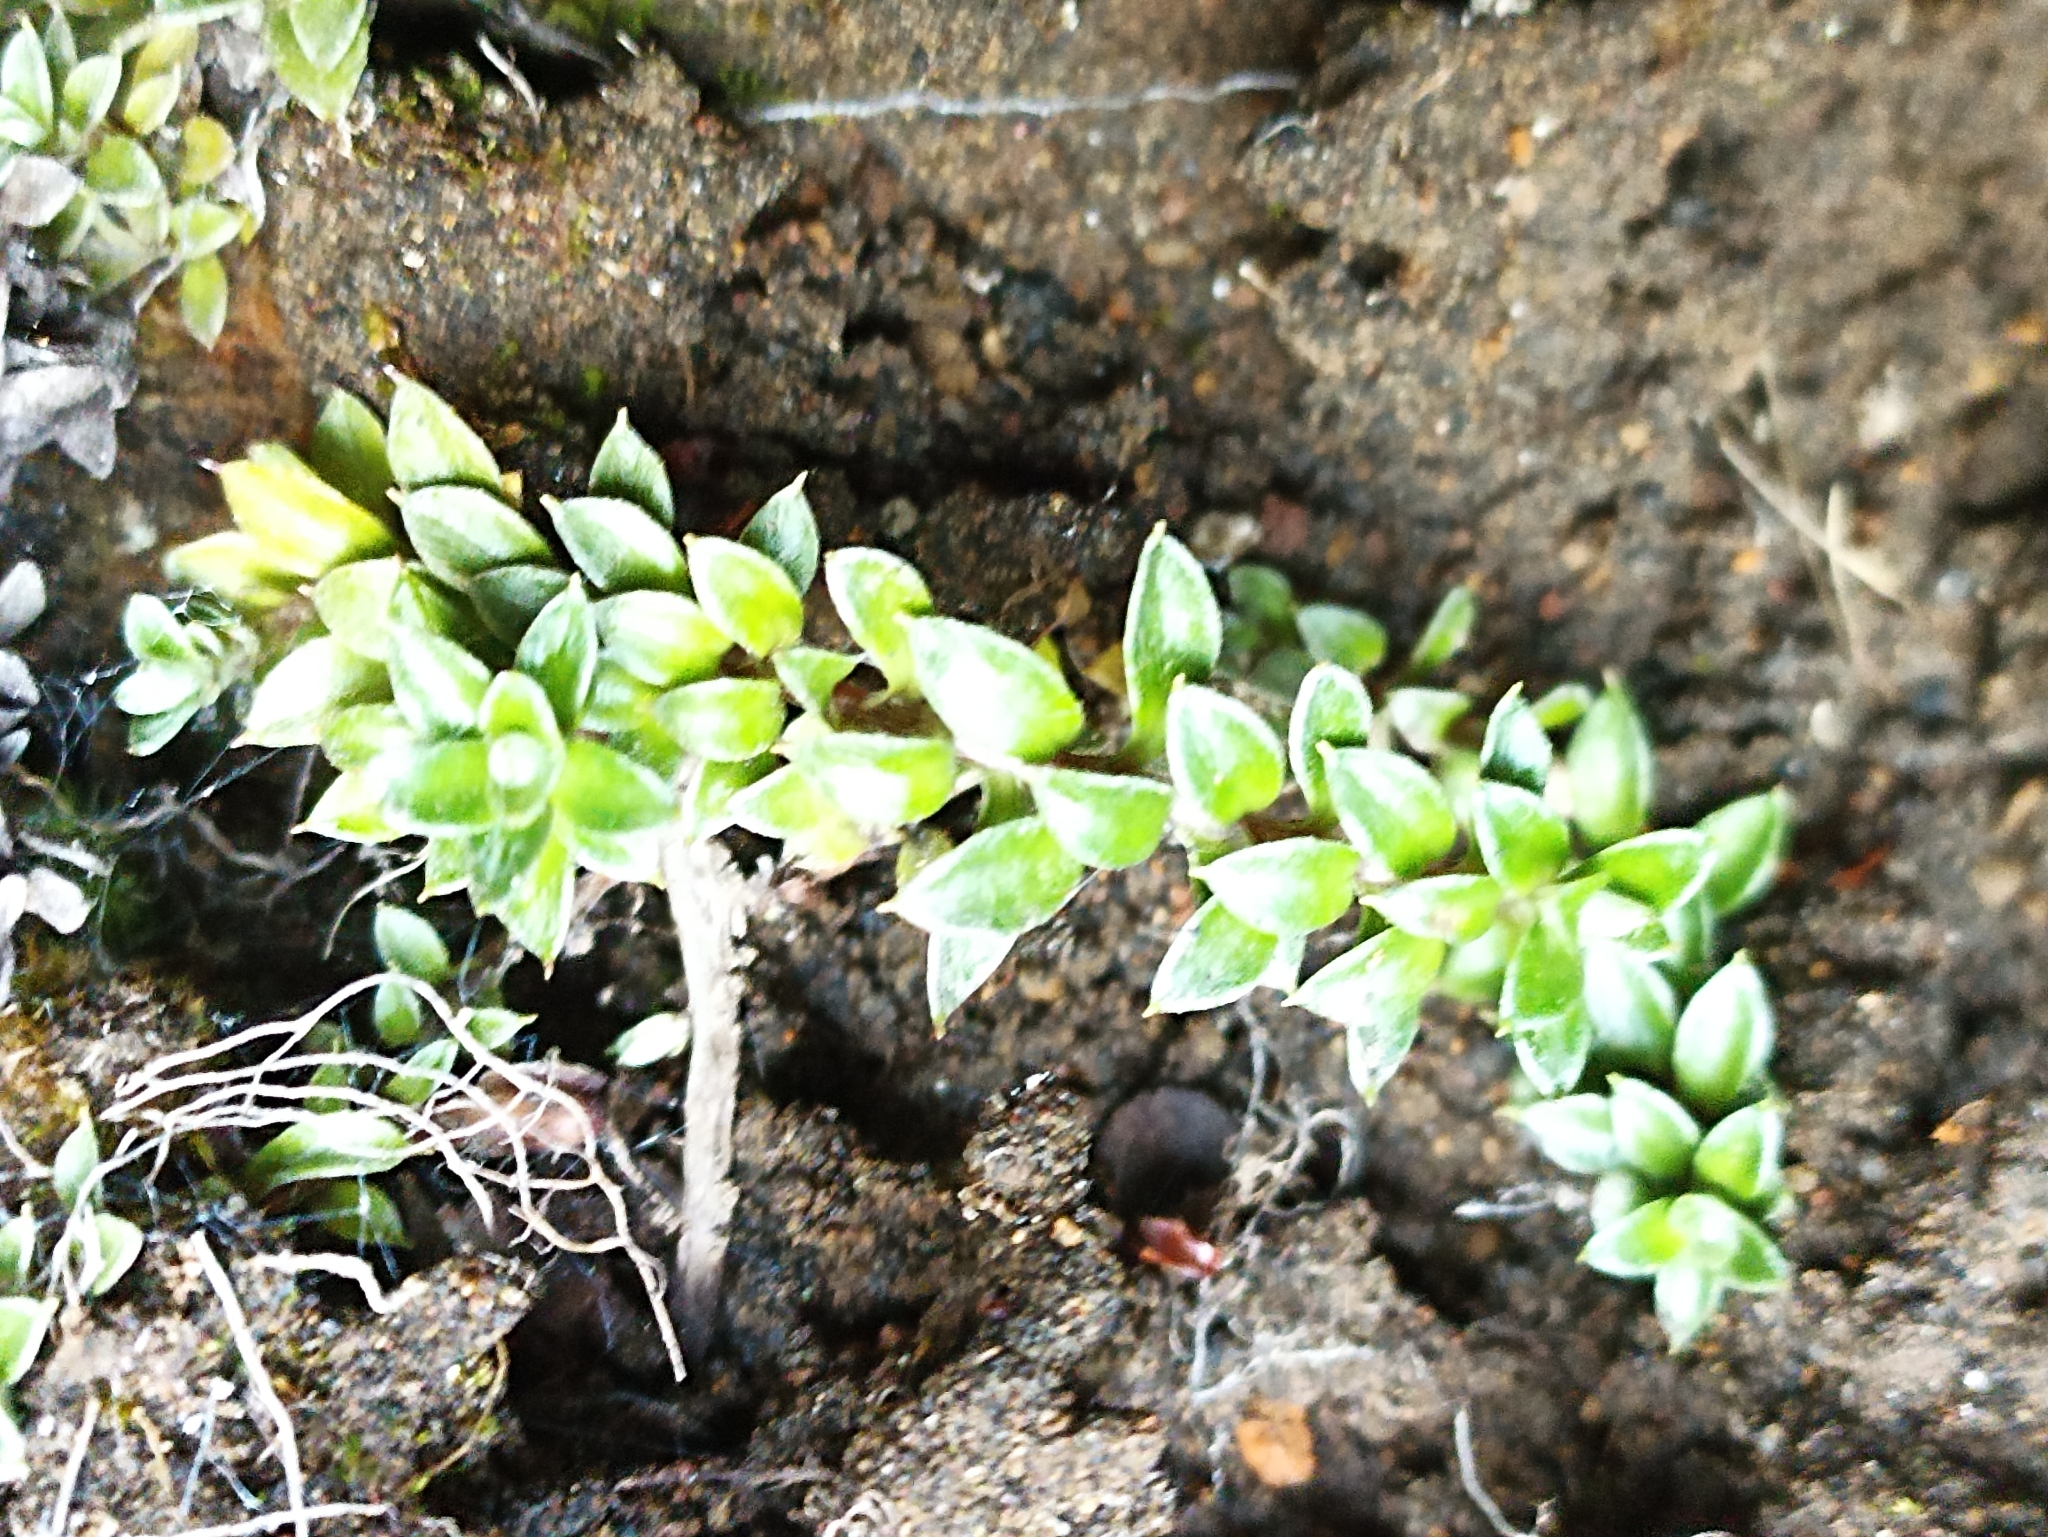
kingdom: Plantae
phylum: Tracheophyta
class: Magnoliopsida
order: Asterales
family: Asteraceae
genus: Anaphalioides
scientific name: Anaphalioides alpina
